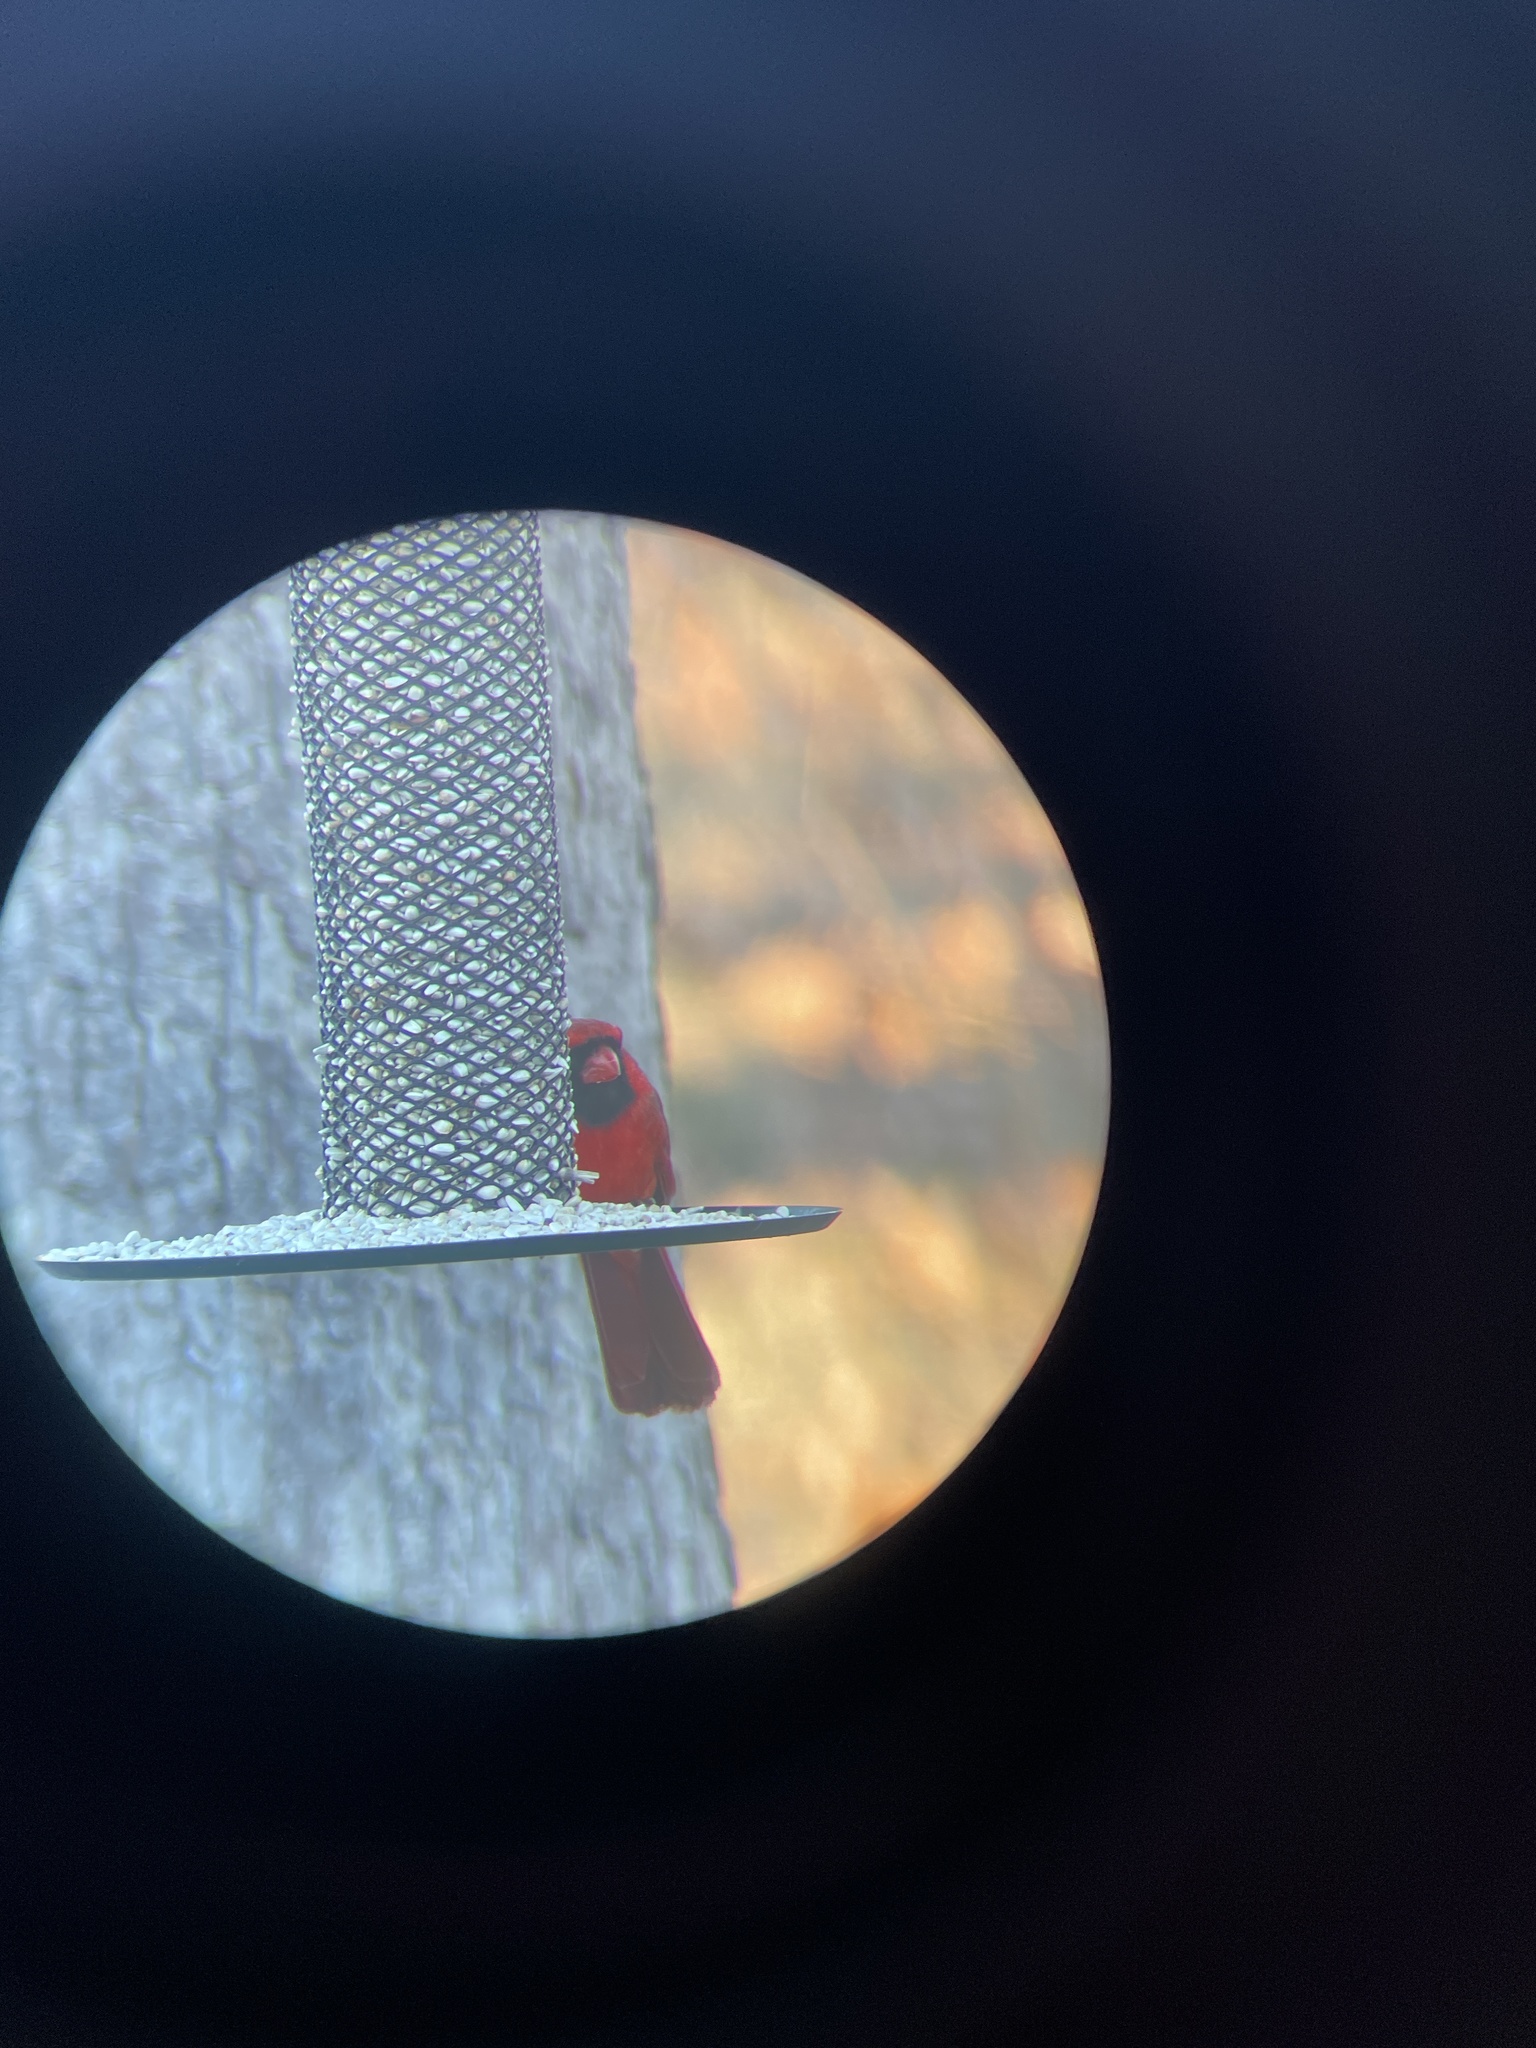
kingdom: Animalia
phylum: Chordata
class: Aves
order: Passeriformes
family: Cardinalidae
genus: Cardinalis
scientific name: Cardinalis cardinalis
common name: Northern cardinal
